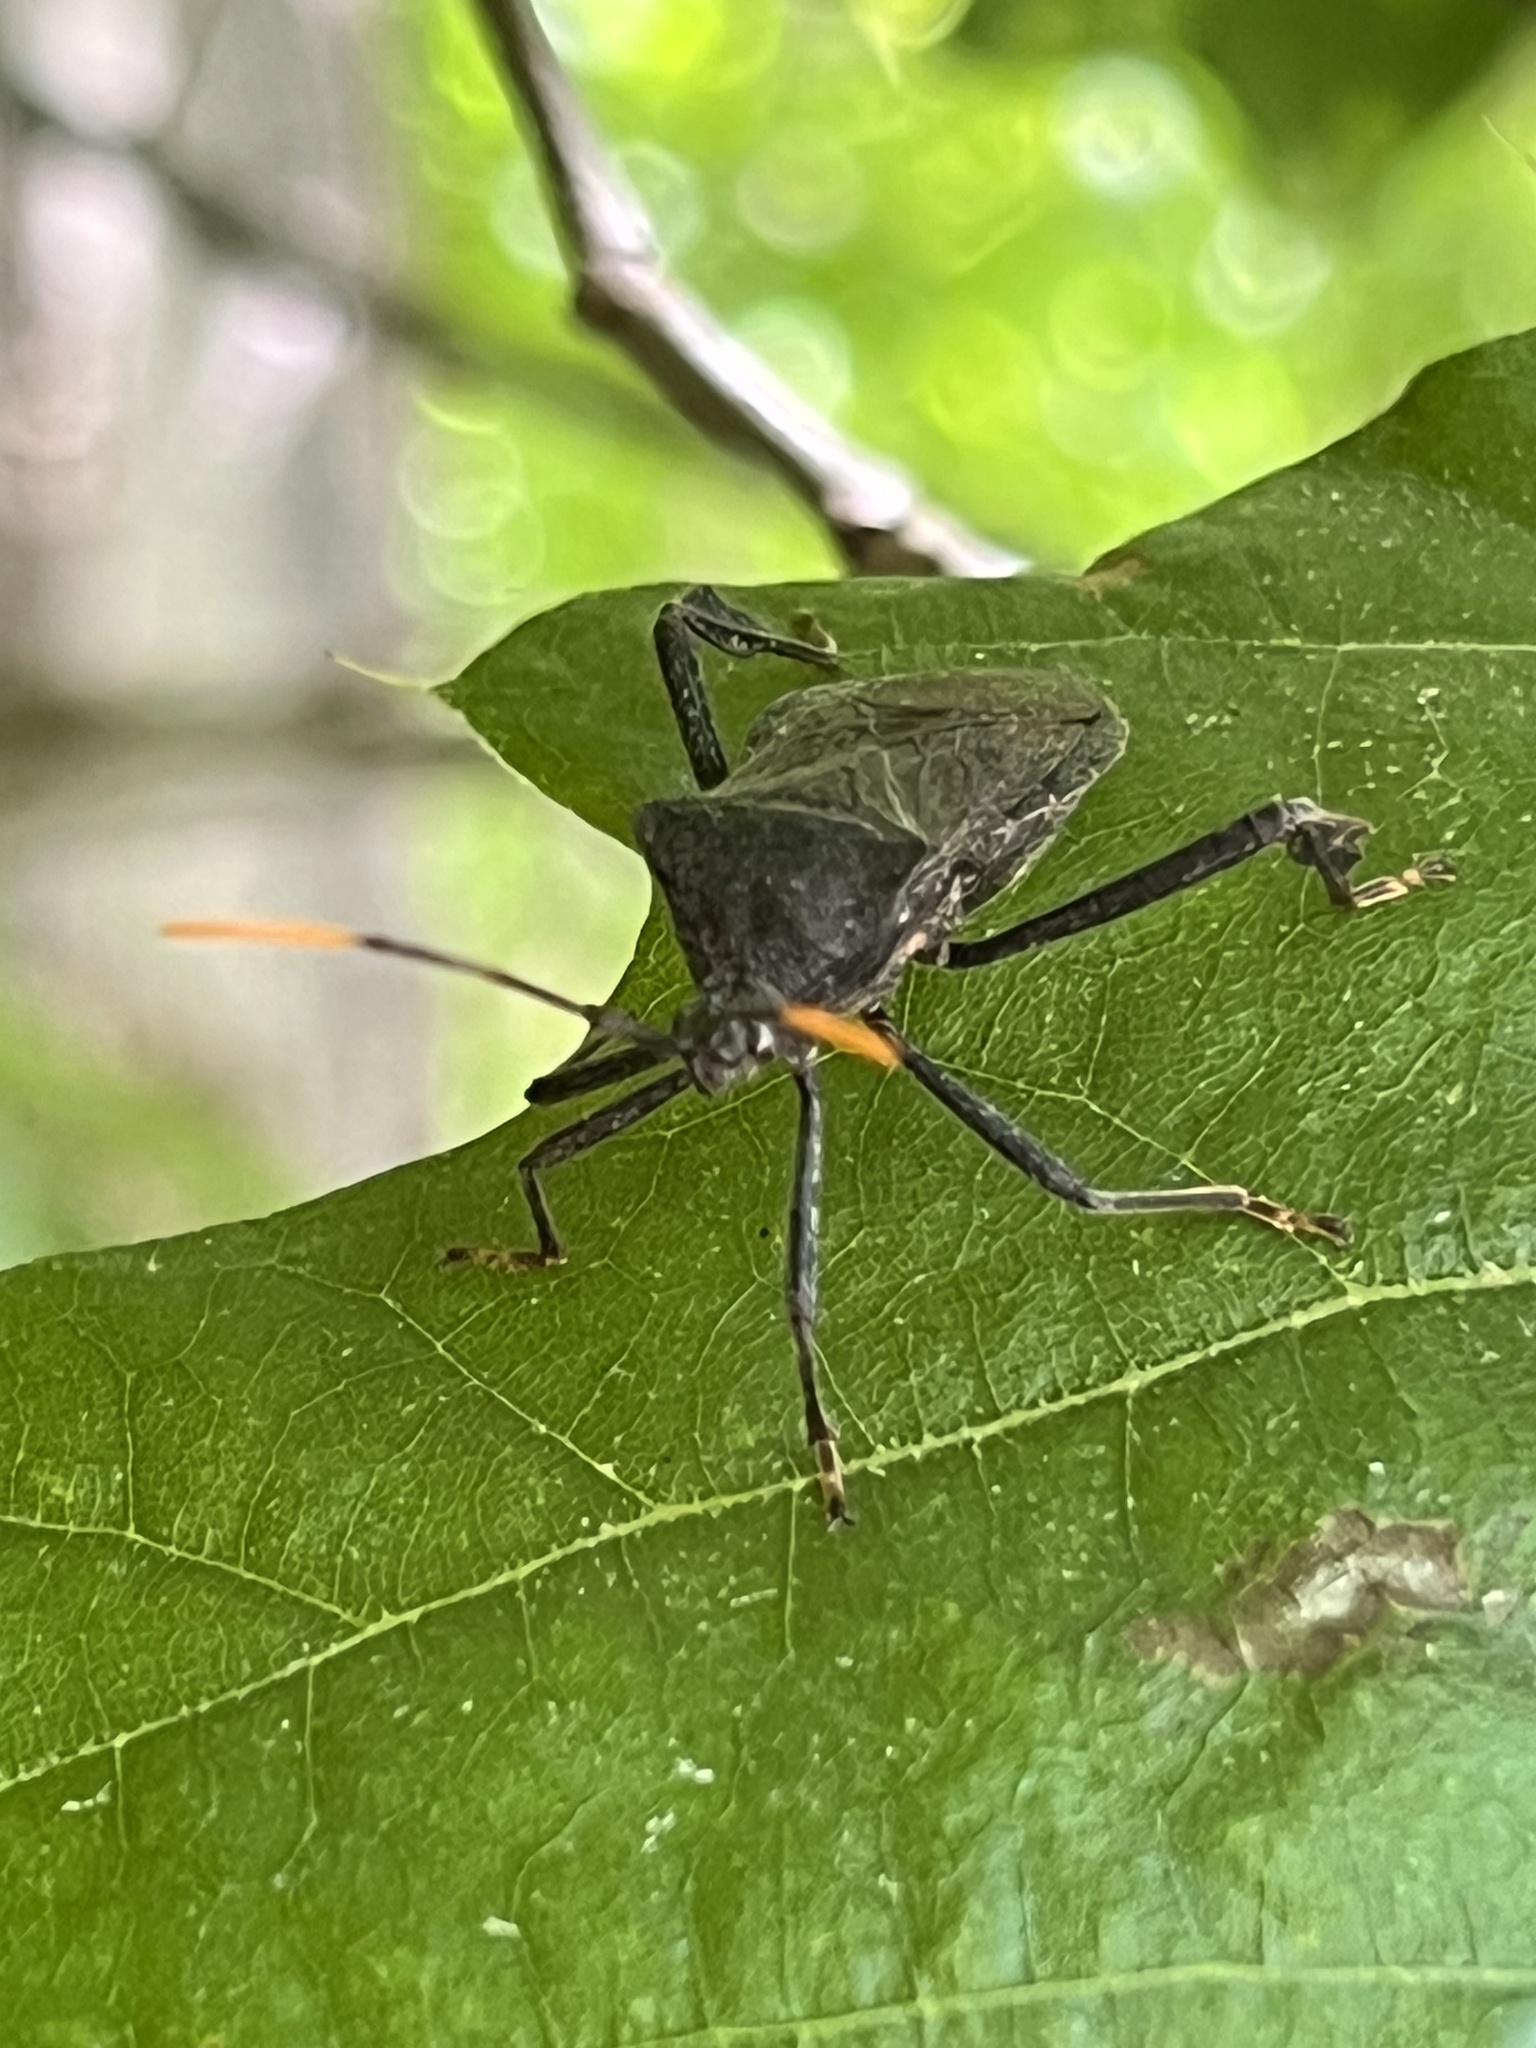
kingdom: Animalia
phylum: Arthropoda
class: Insecta
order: Hemiptera
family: Coreidae
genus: Acanthocephala
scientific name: Acanthocephala terminalis
